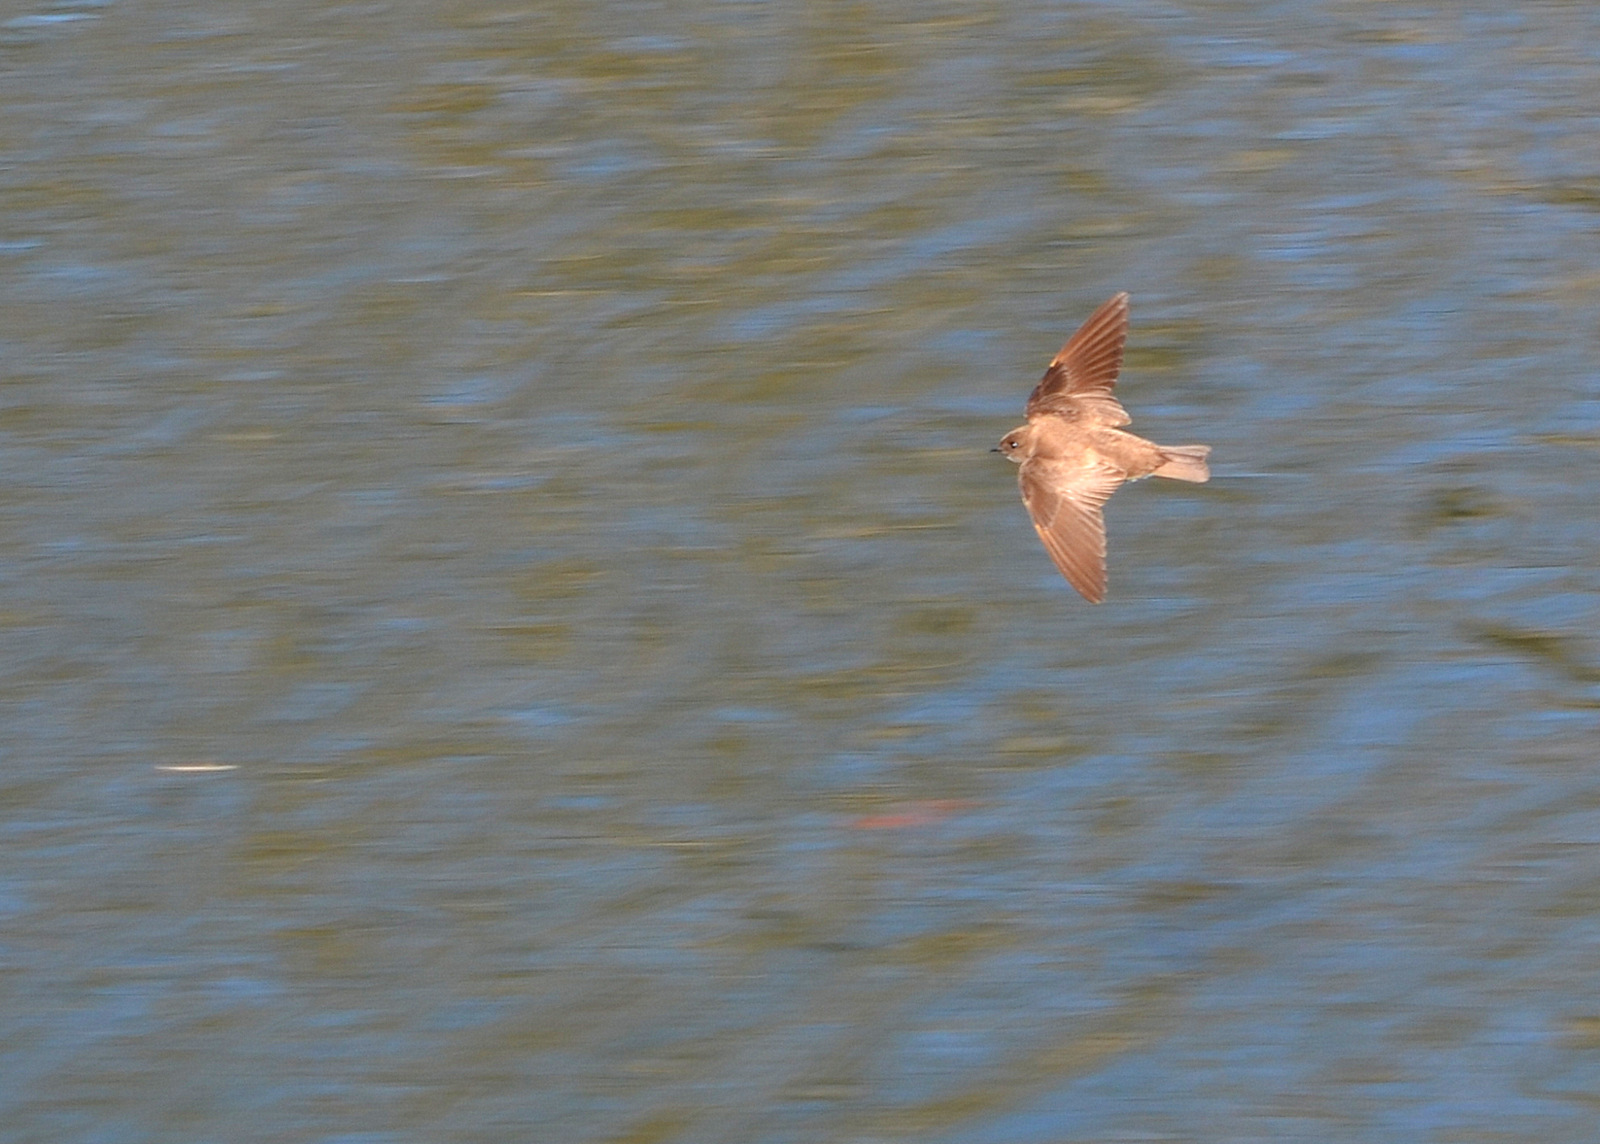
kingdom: Animalia
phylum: Chordata
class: Aves
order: Passeriformes
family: Hirundinidae
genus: Stelgidopteryx
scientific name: Stelgidopteryx serripennis
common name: Northern rough-winged swallow
